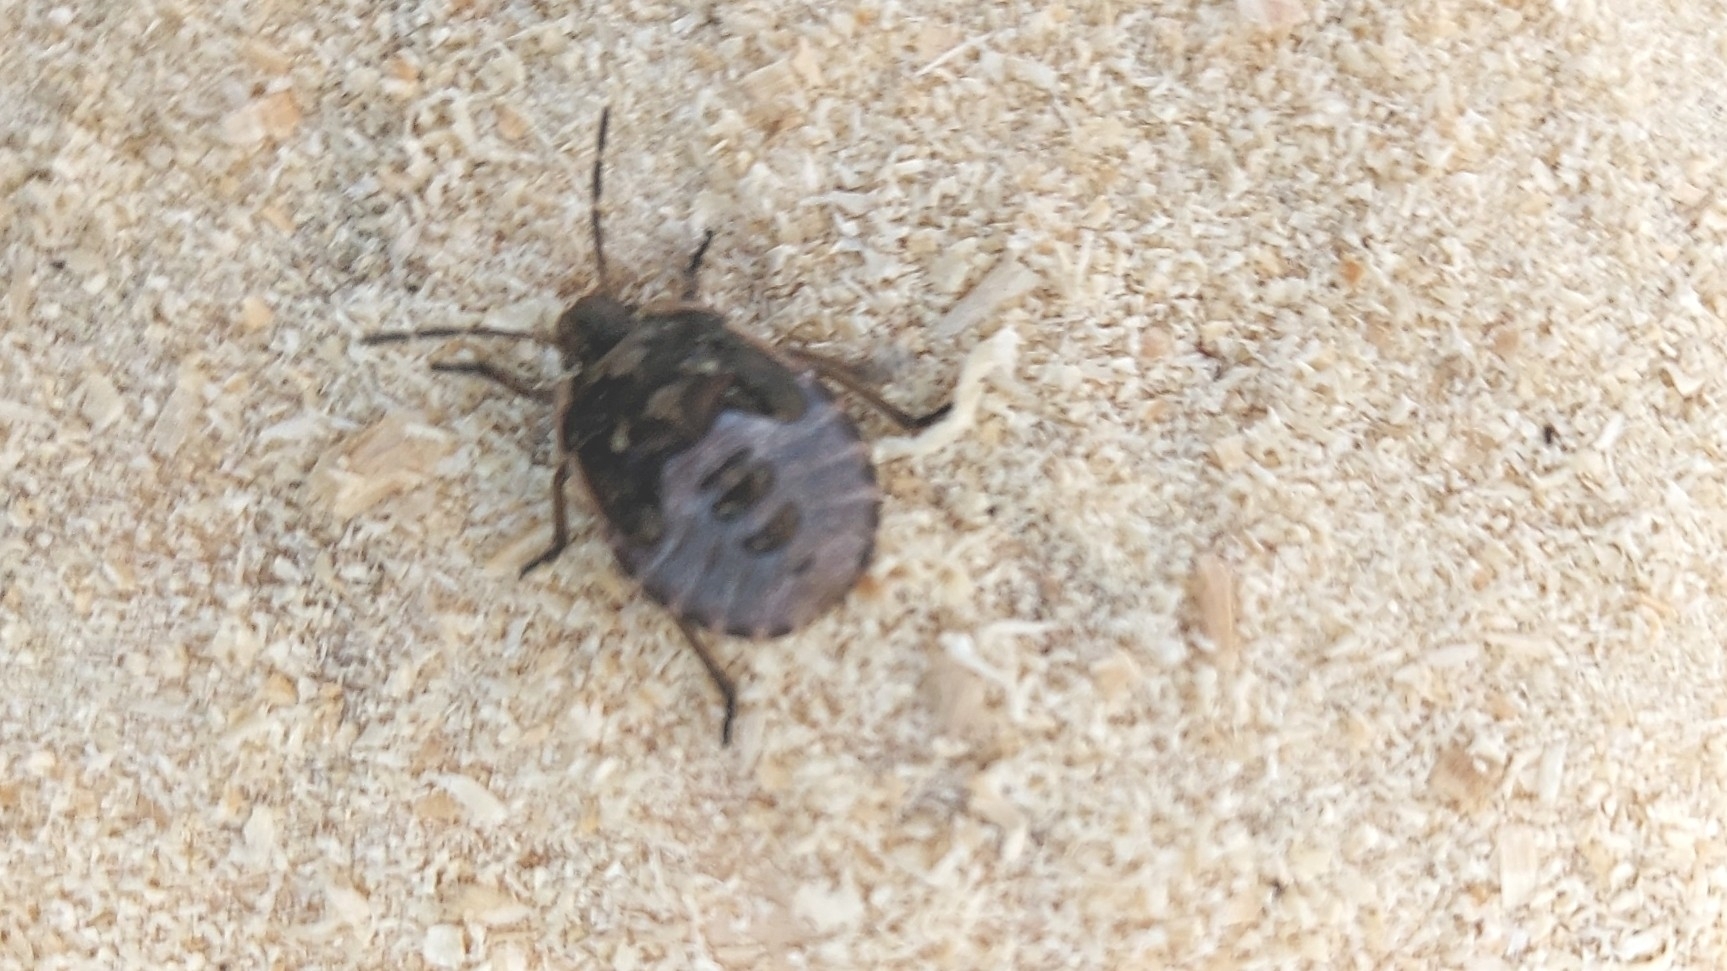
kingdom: Animalia
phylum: Arthropoda
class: Insecta
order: Hemiptera
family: Pentatomidae
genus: Chlorochroa
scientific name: Chlorochroa juniperina
